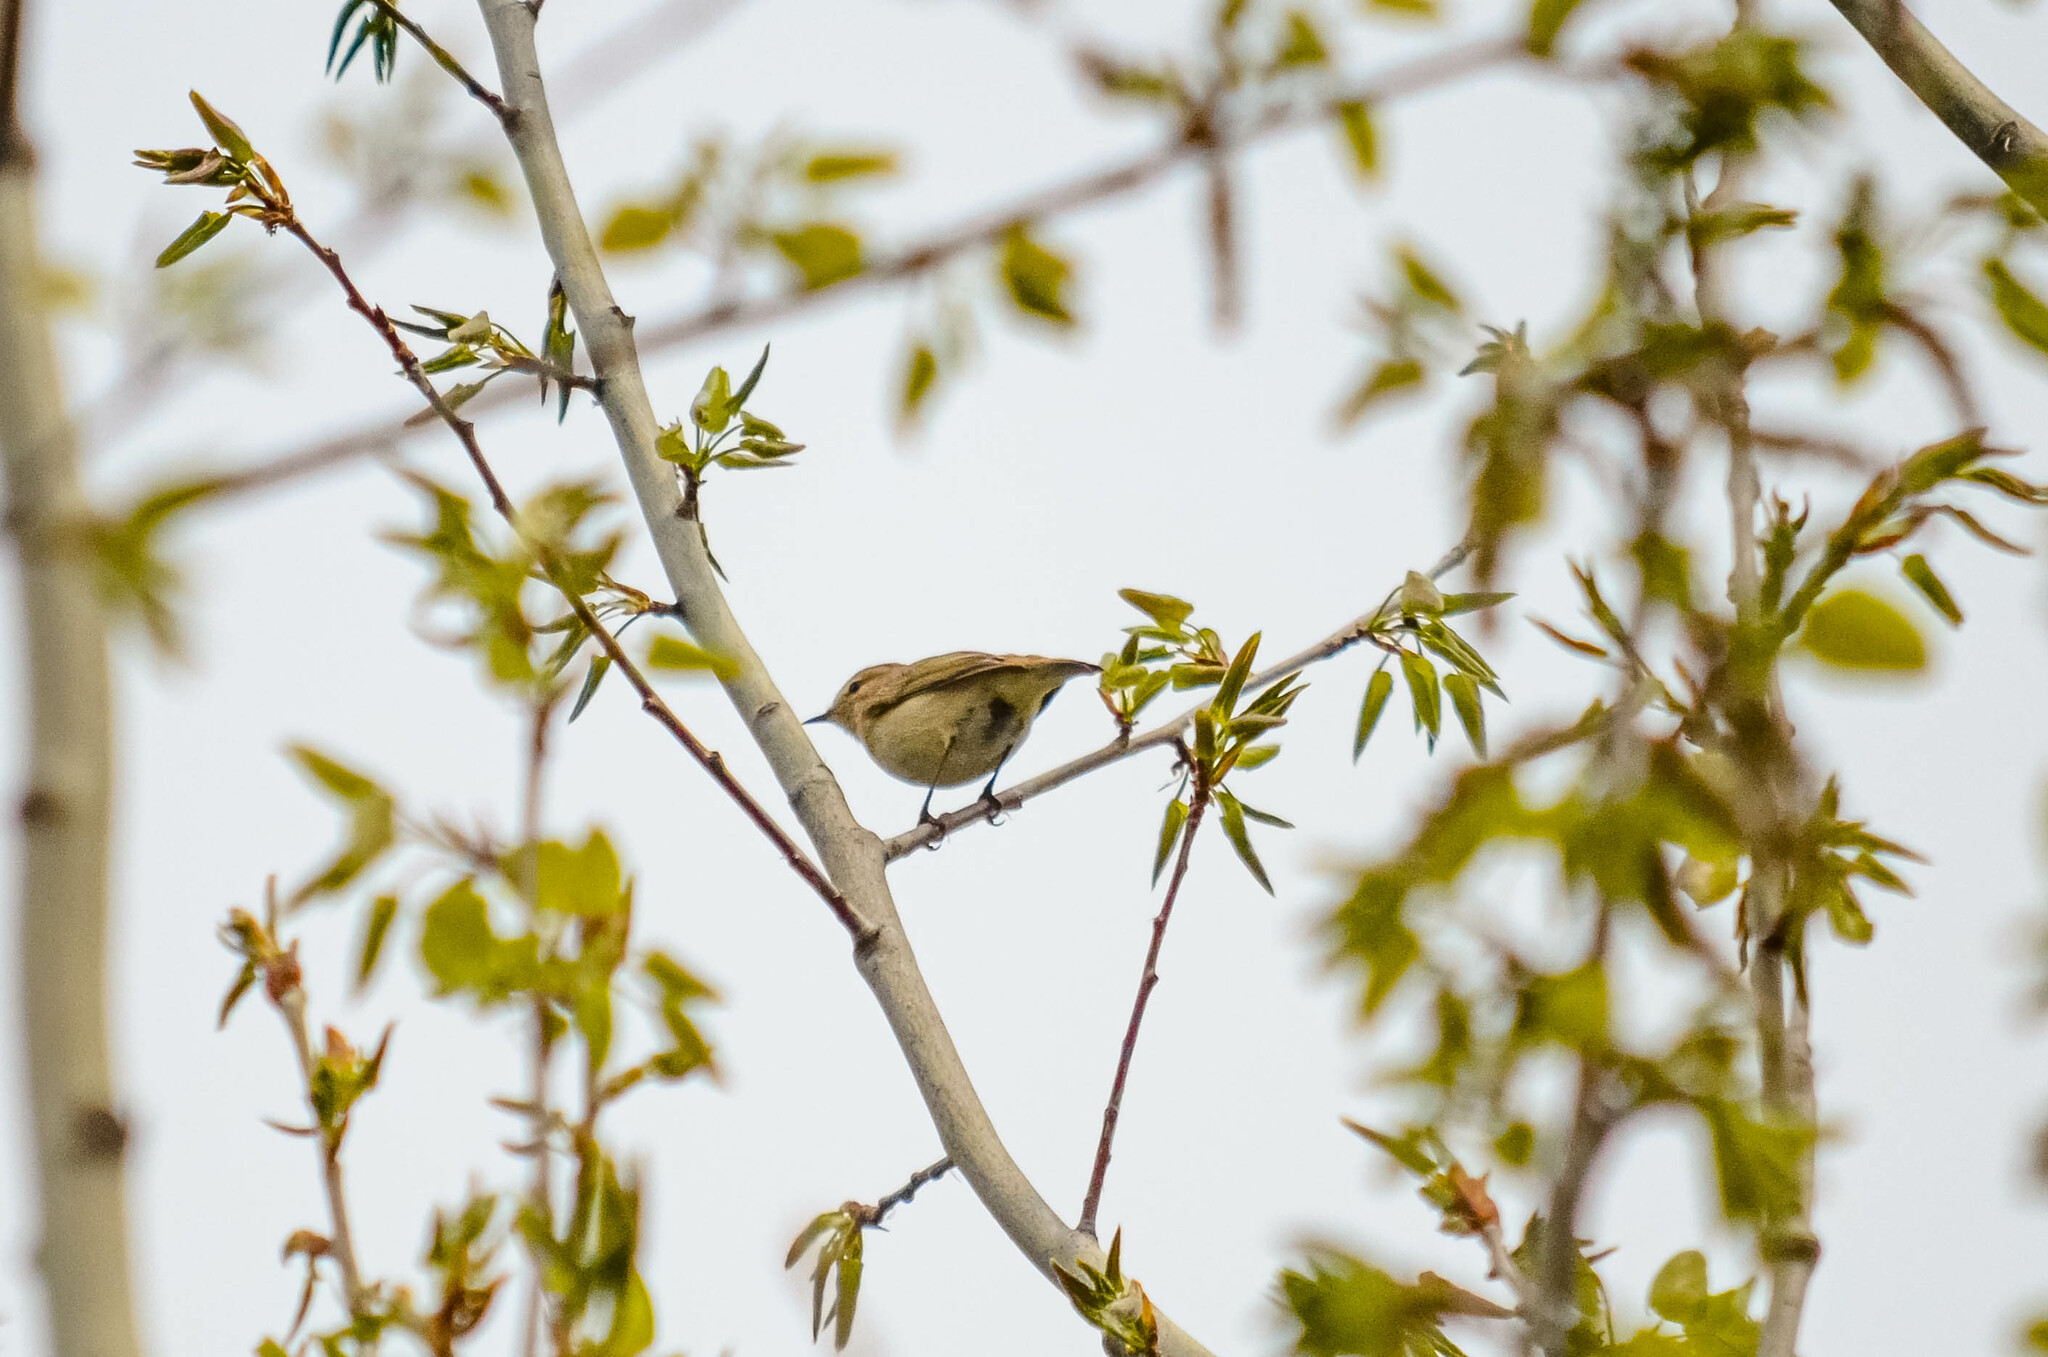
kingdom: Animalia
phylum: Chordata
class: Aves
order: Passeriformes
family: Phylloscopidae
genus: Phylloscopus
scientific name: Phylloscopus collybita
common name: Common chiffchaff
